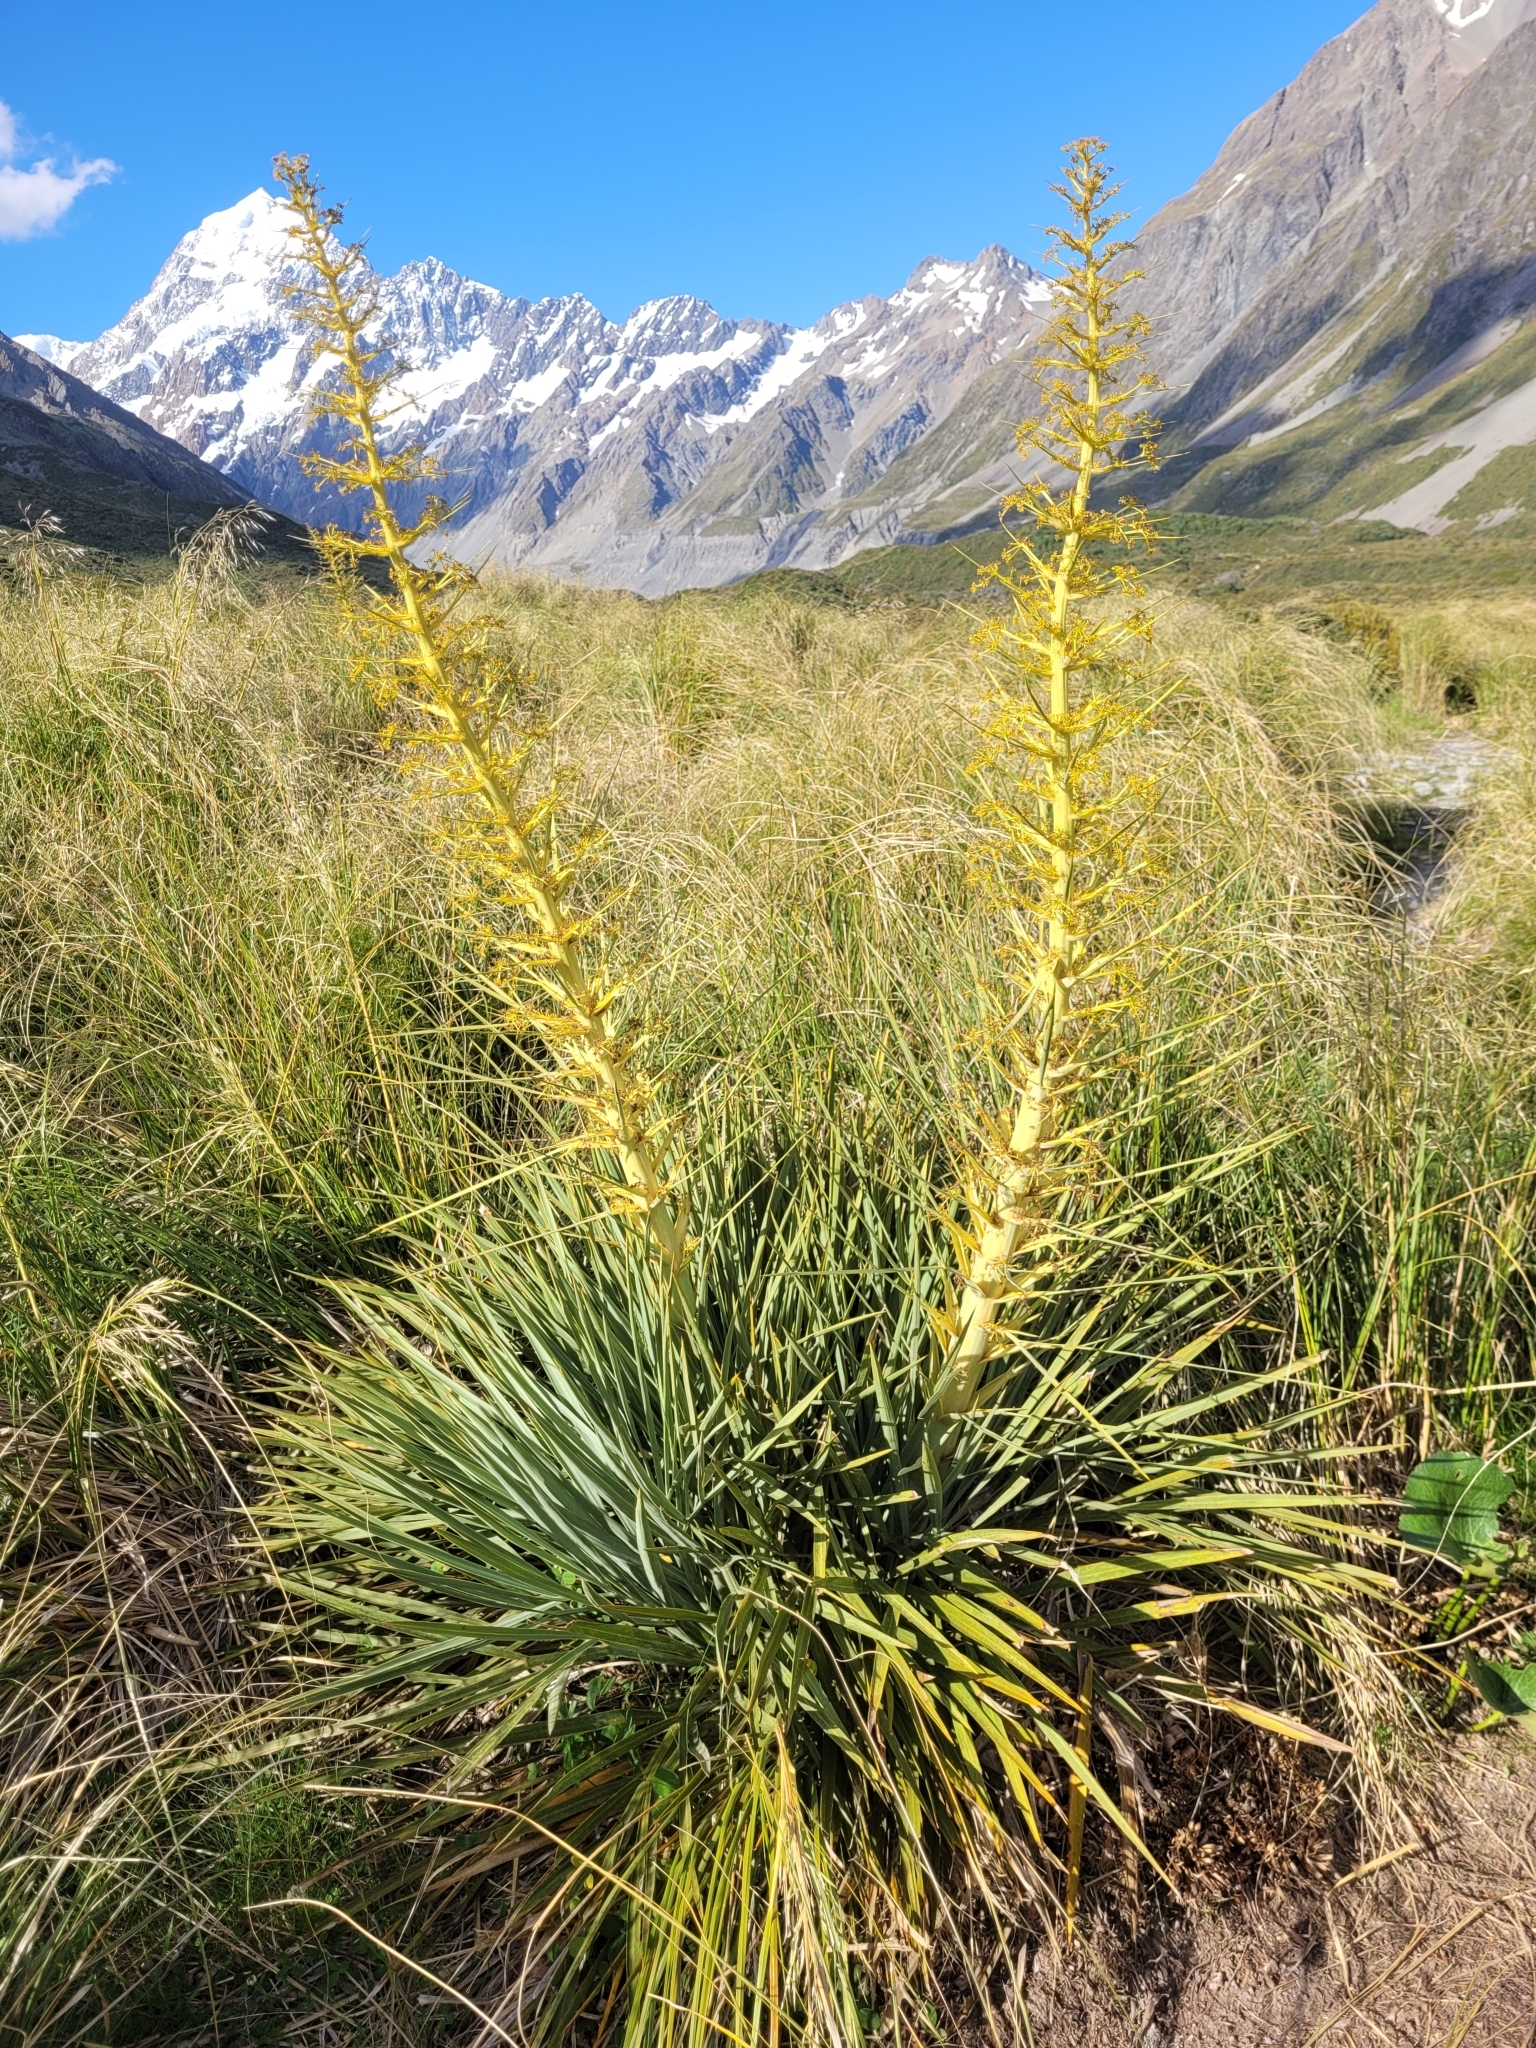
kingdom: Plantae
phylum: Tracheophyta
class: Magnoliopsida
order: Apiales
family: Apiaceae
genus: Aciphylla
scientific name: Aciphylla scott-thomsonii
